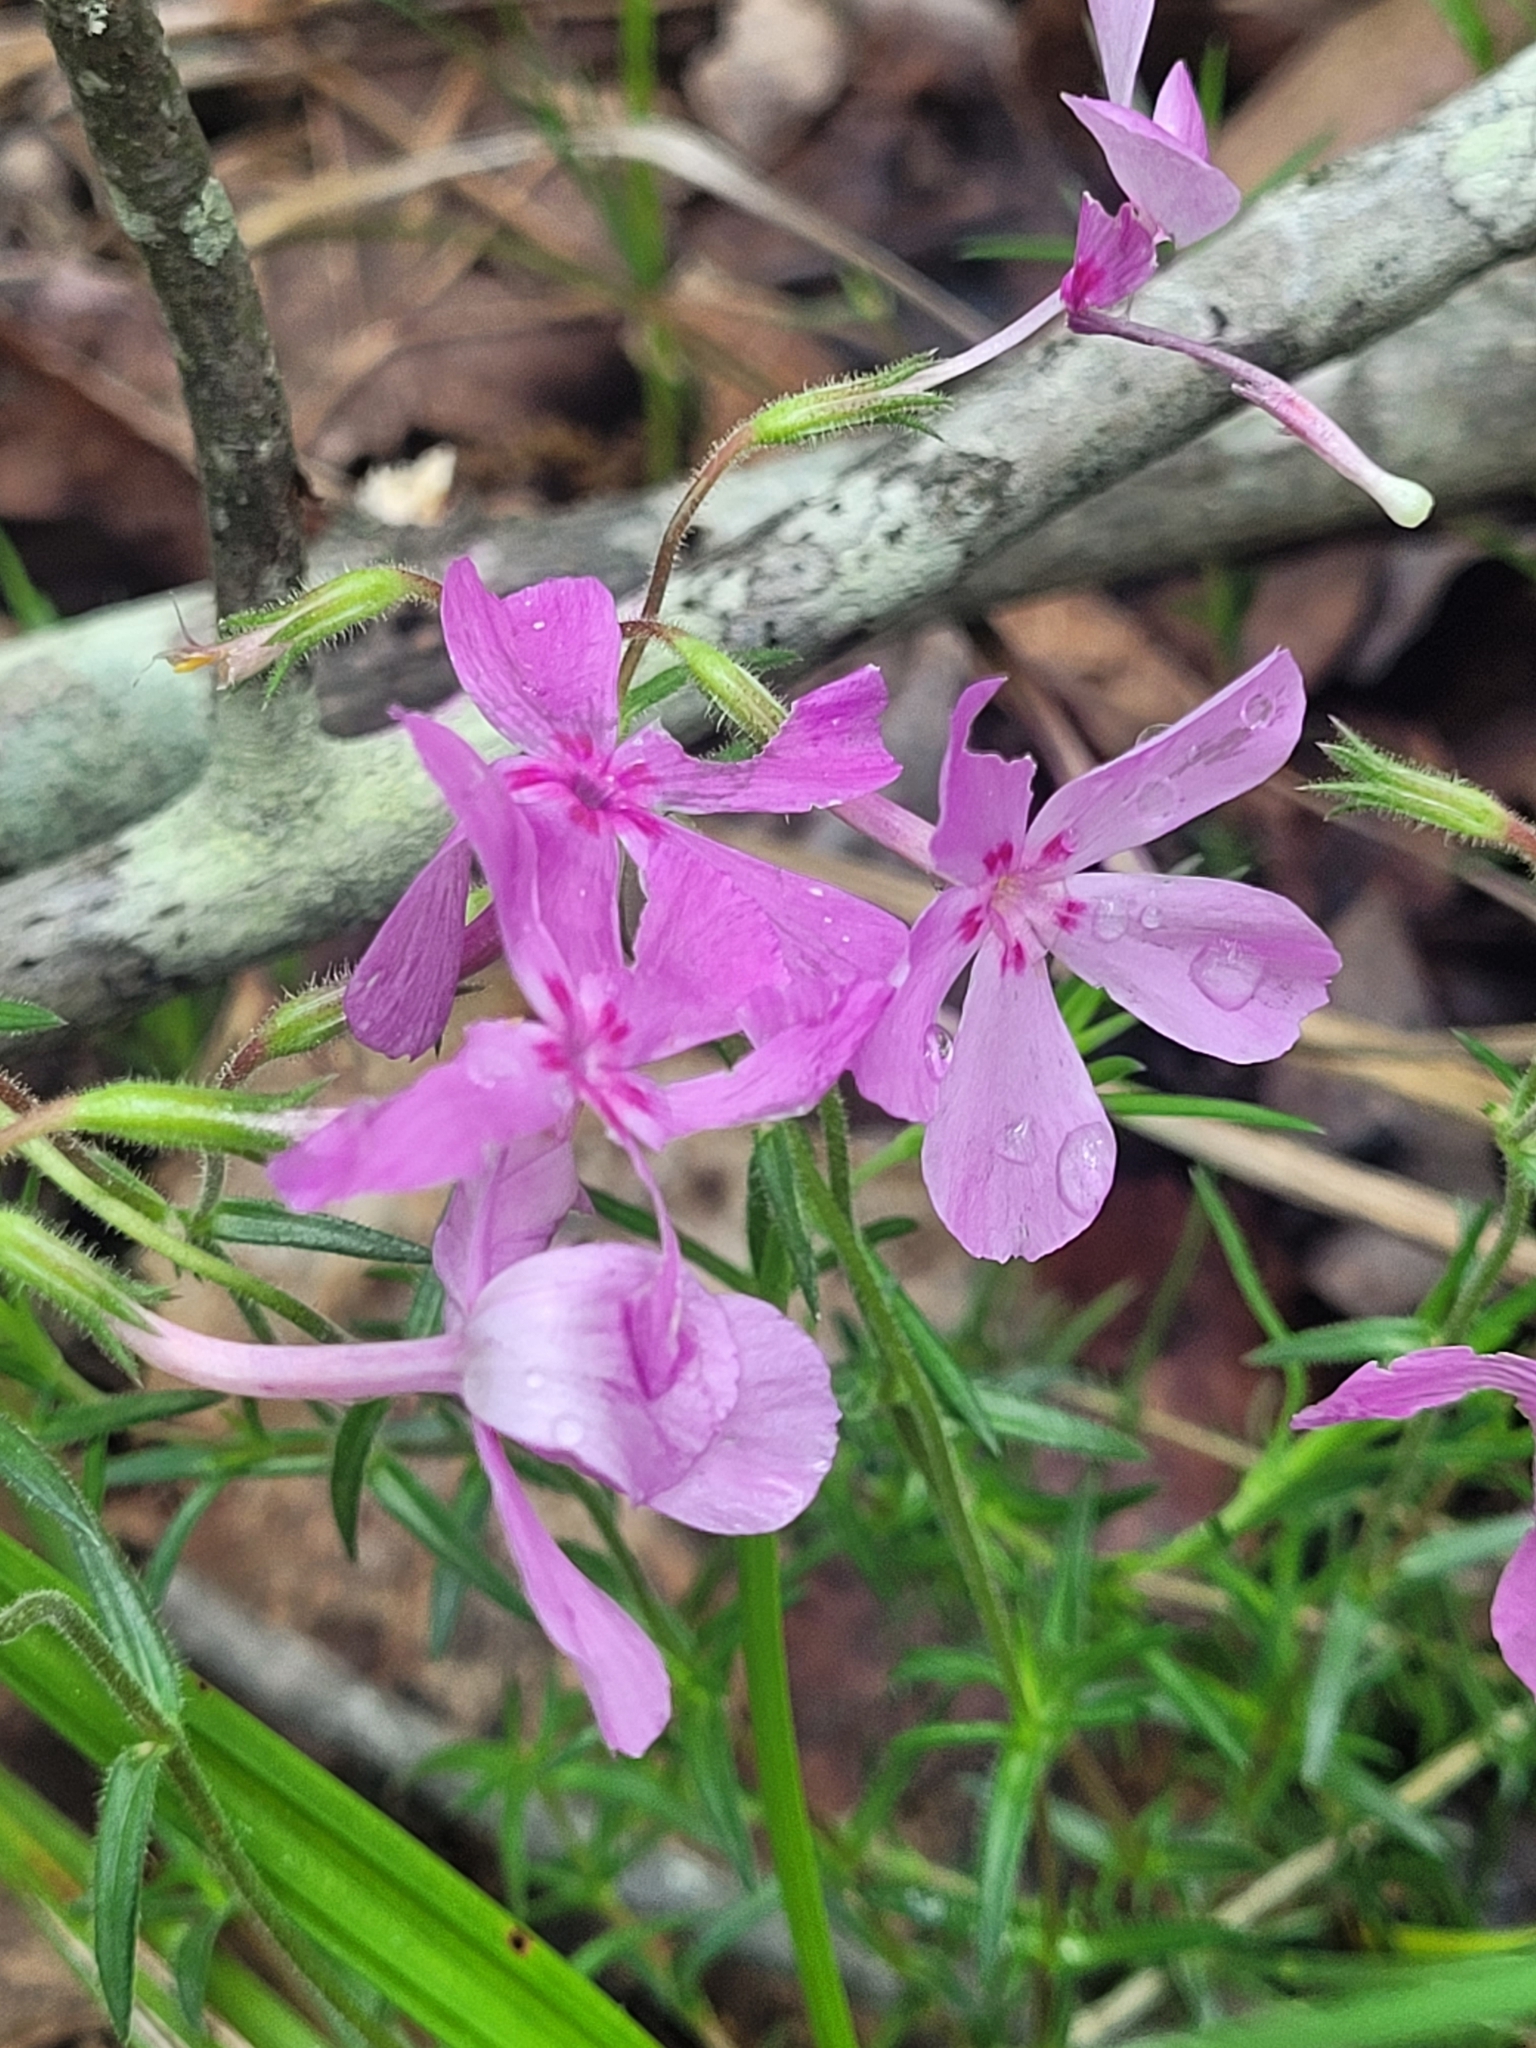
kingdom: Plantae
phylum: Tracheophyta
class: Magnoliopsida
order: Ericales
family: Polemoniaceae
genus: Phlox
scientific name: Phlox nivalis
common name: Trailing phlox
